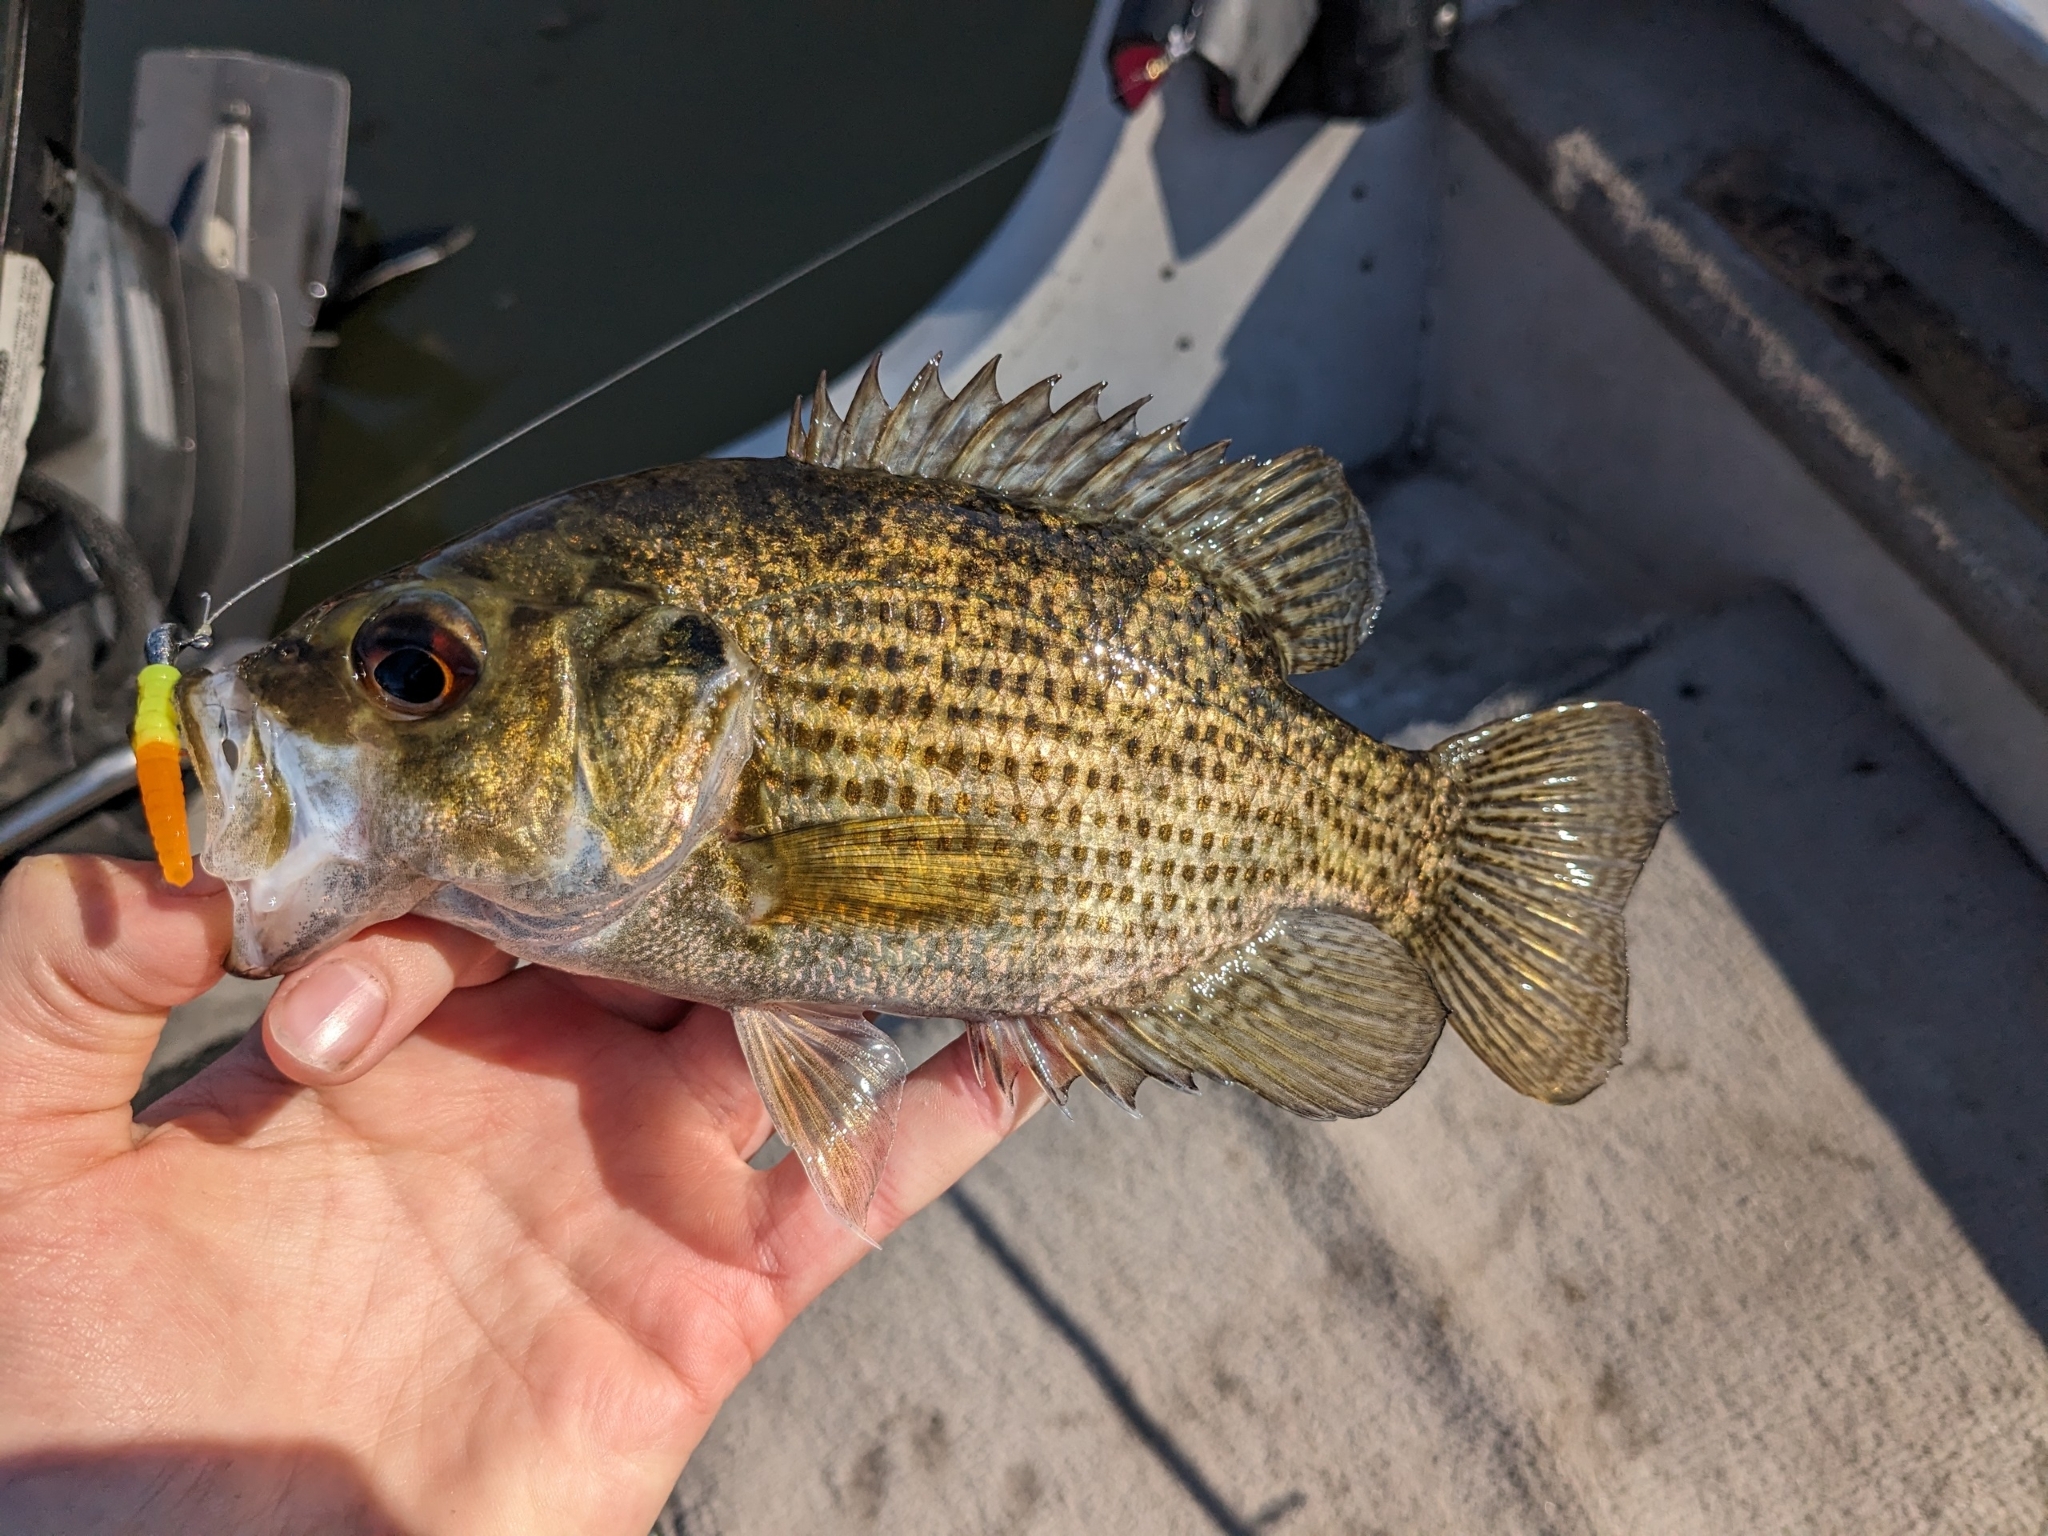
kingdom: Animalia
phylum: Chordata
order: Perciformes
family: Centrarchidae
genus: Ambloplites
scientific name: Ambloplites rupestris
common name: Rock bass
